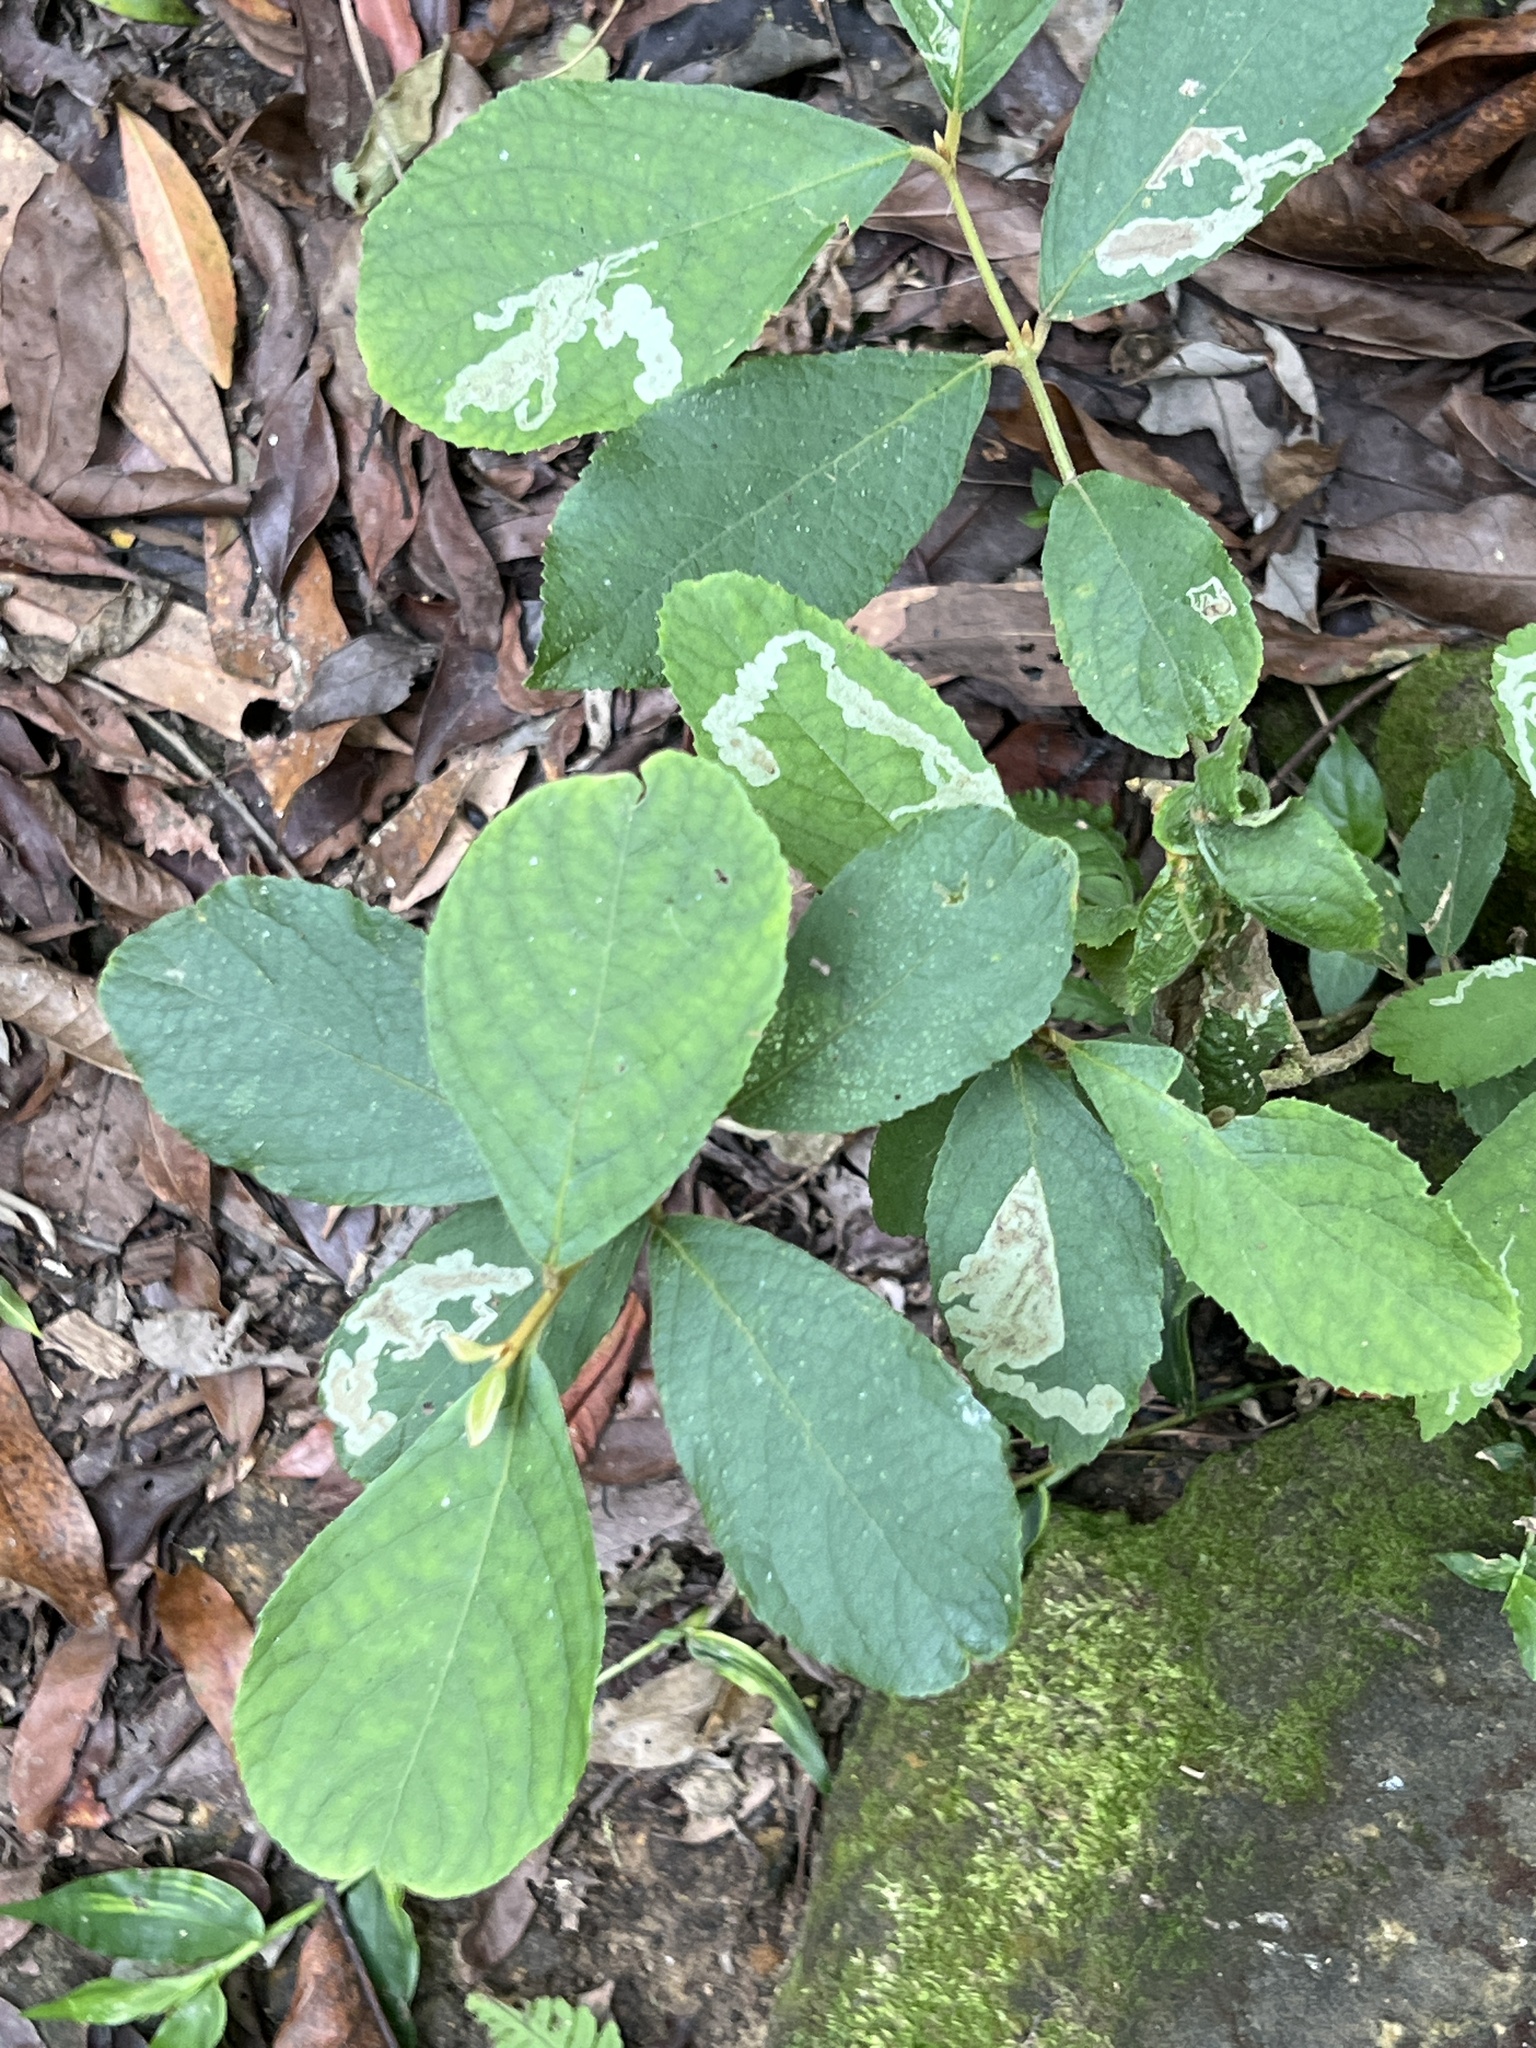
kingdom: Plantae
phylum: Tracheophyta
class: Magnoliopsida
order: Lamiales
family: Lamiaceae
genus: Callicarpa
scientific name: Callicarpa pedunculata
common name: Velvetleaf
